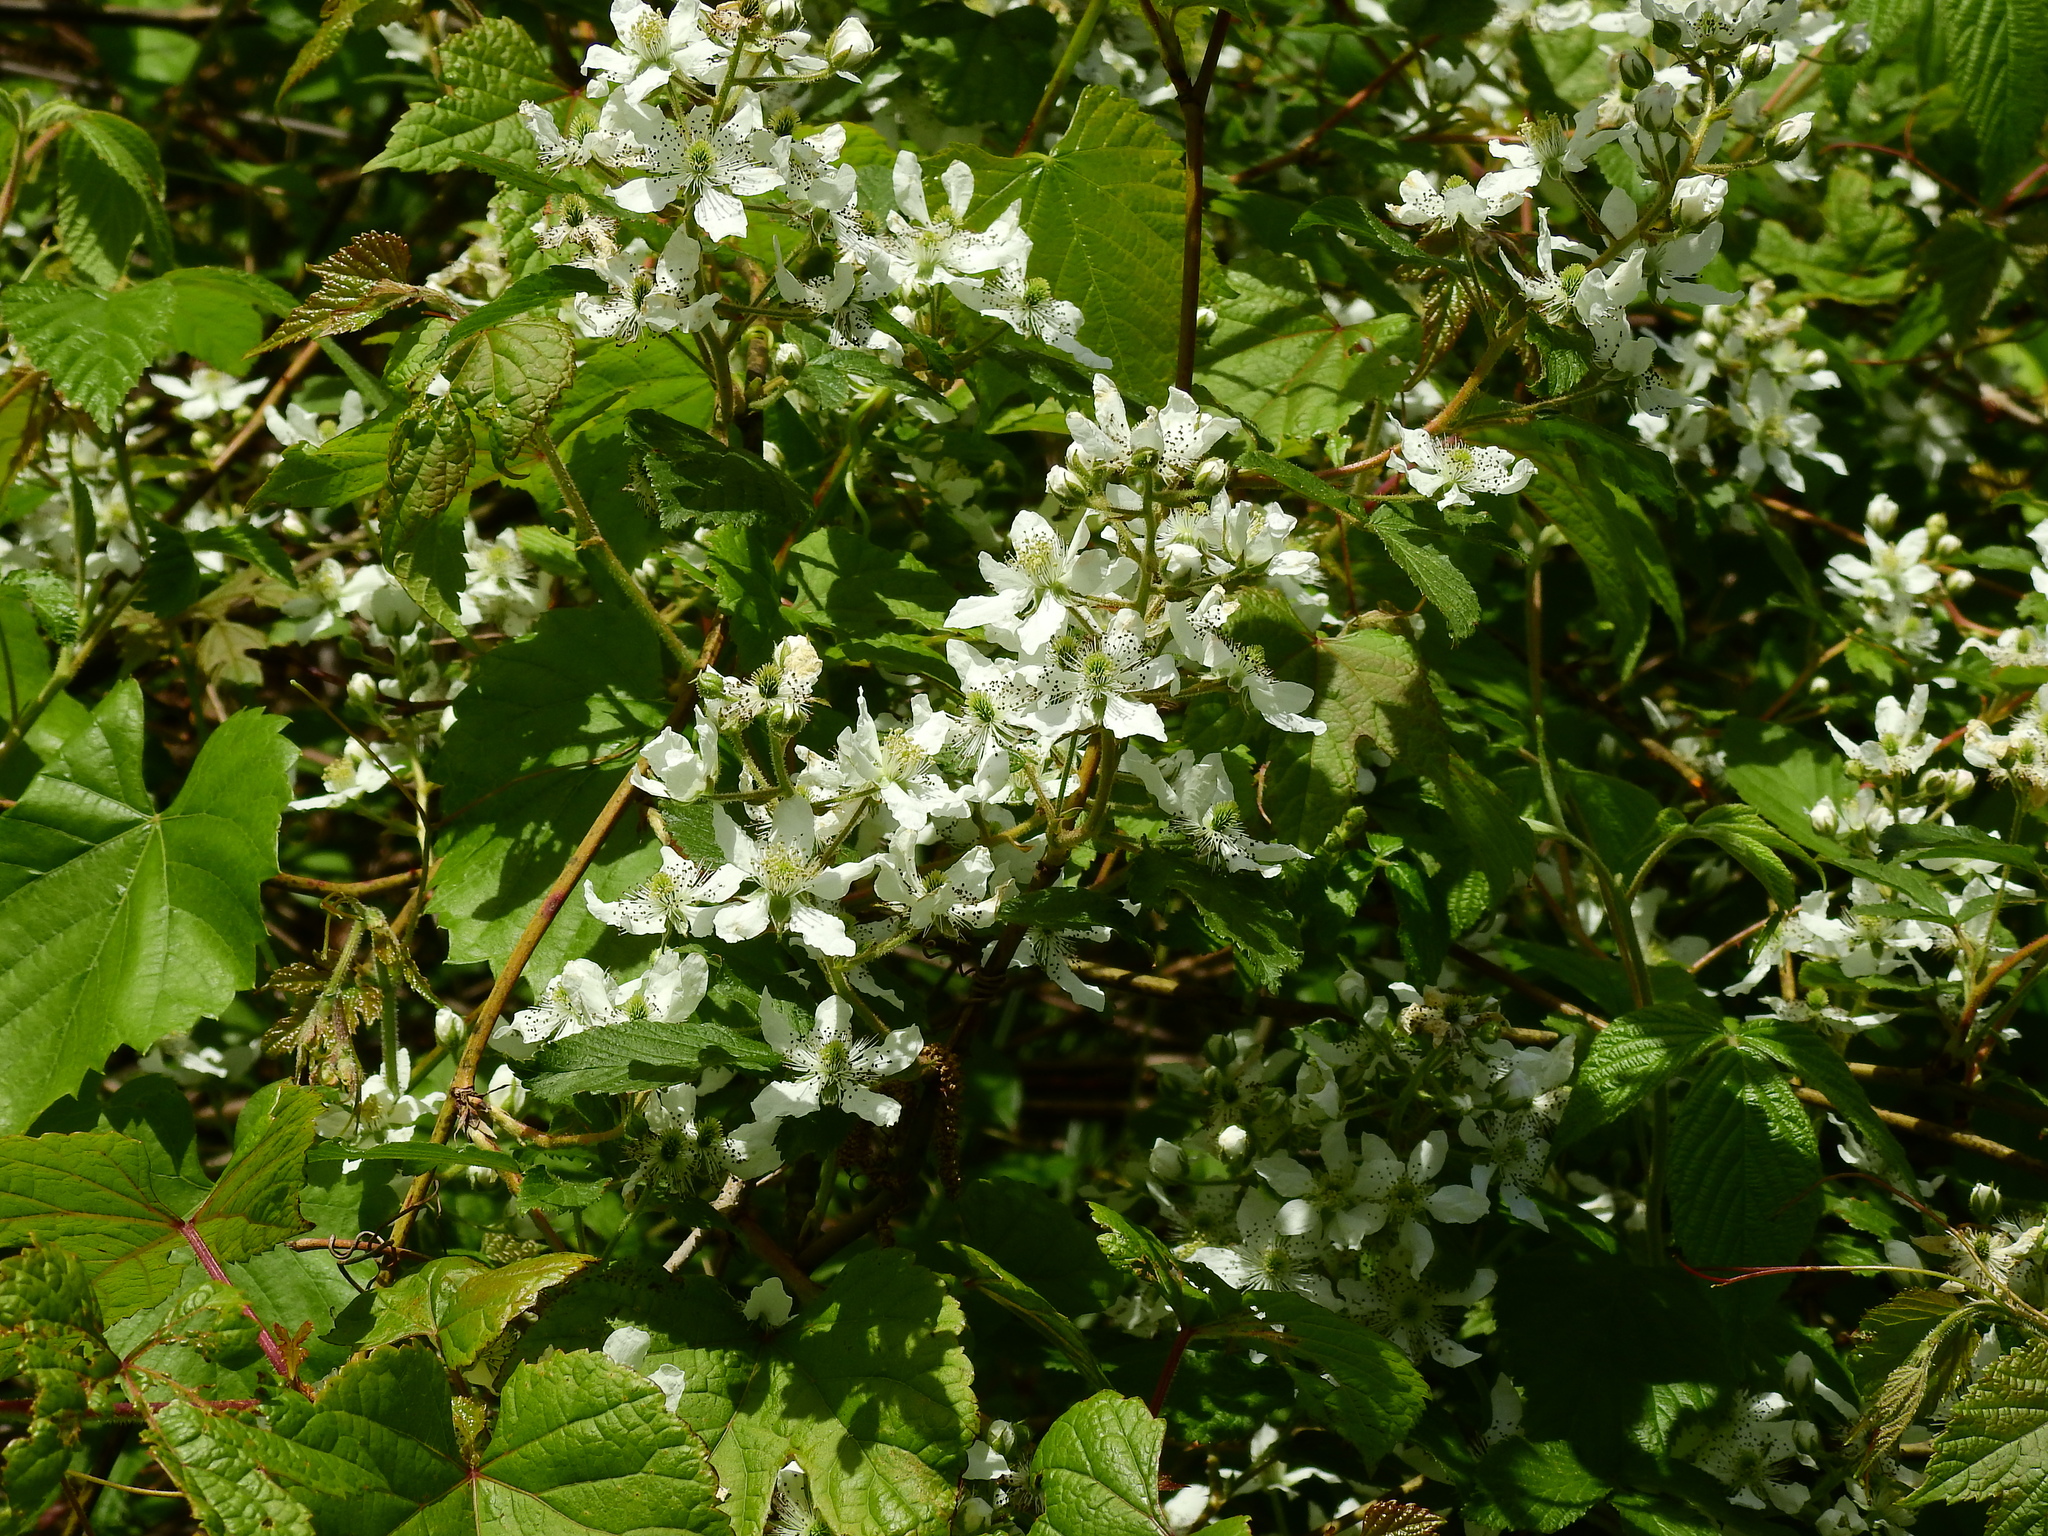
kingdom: Plantae
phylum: Tracheophyta
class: Magnoliopsida
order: Rosales
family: Rosaceae
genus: Rubus
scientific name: Rubus allegheniensis
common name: Allegheny blackberry
